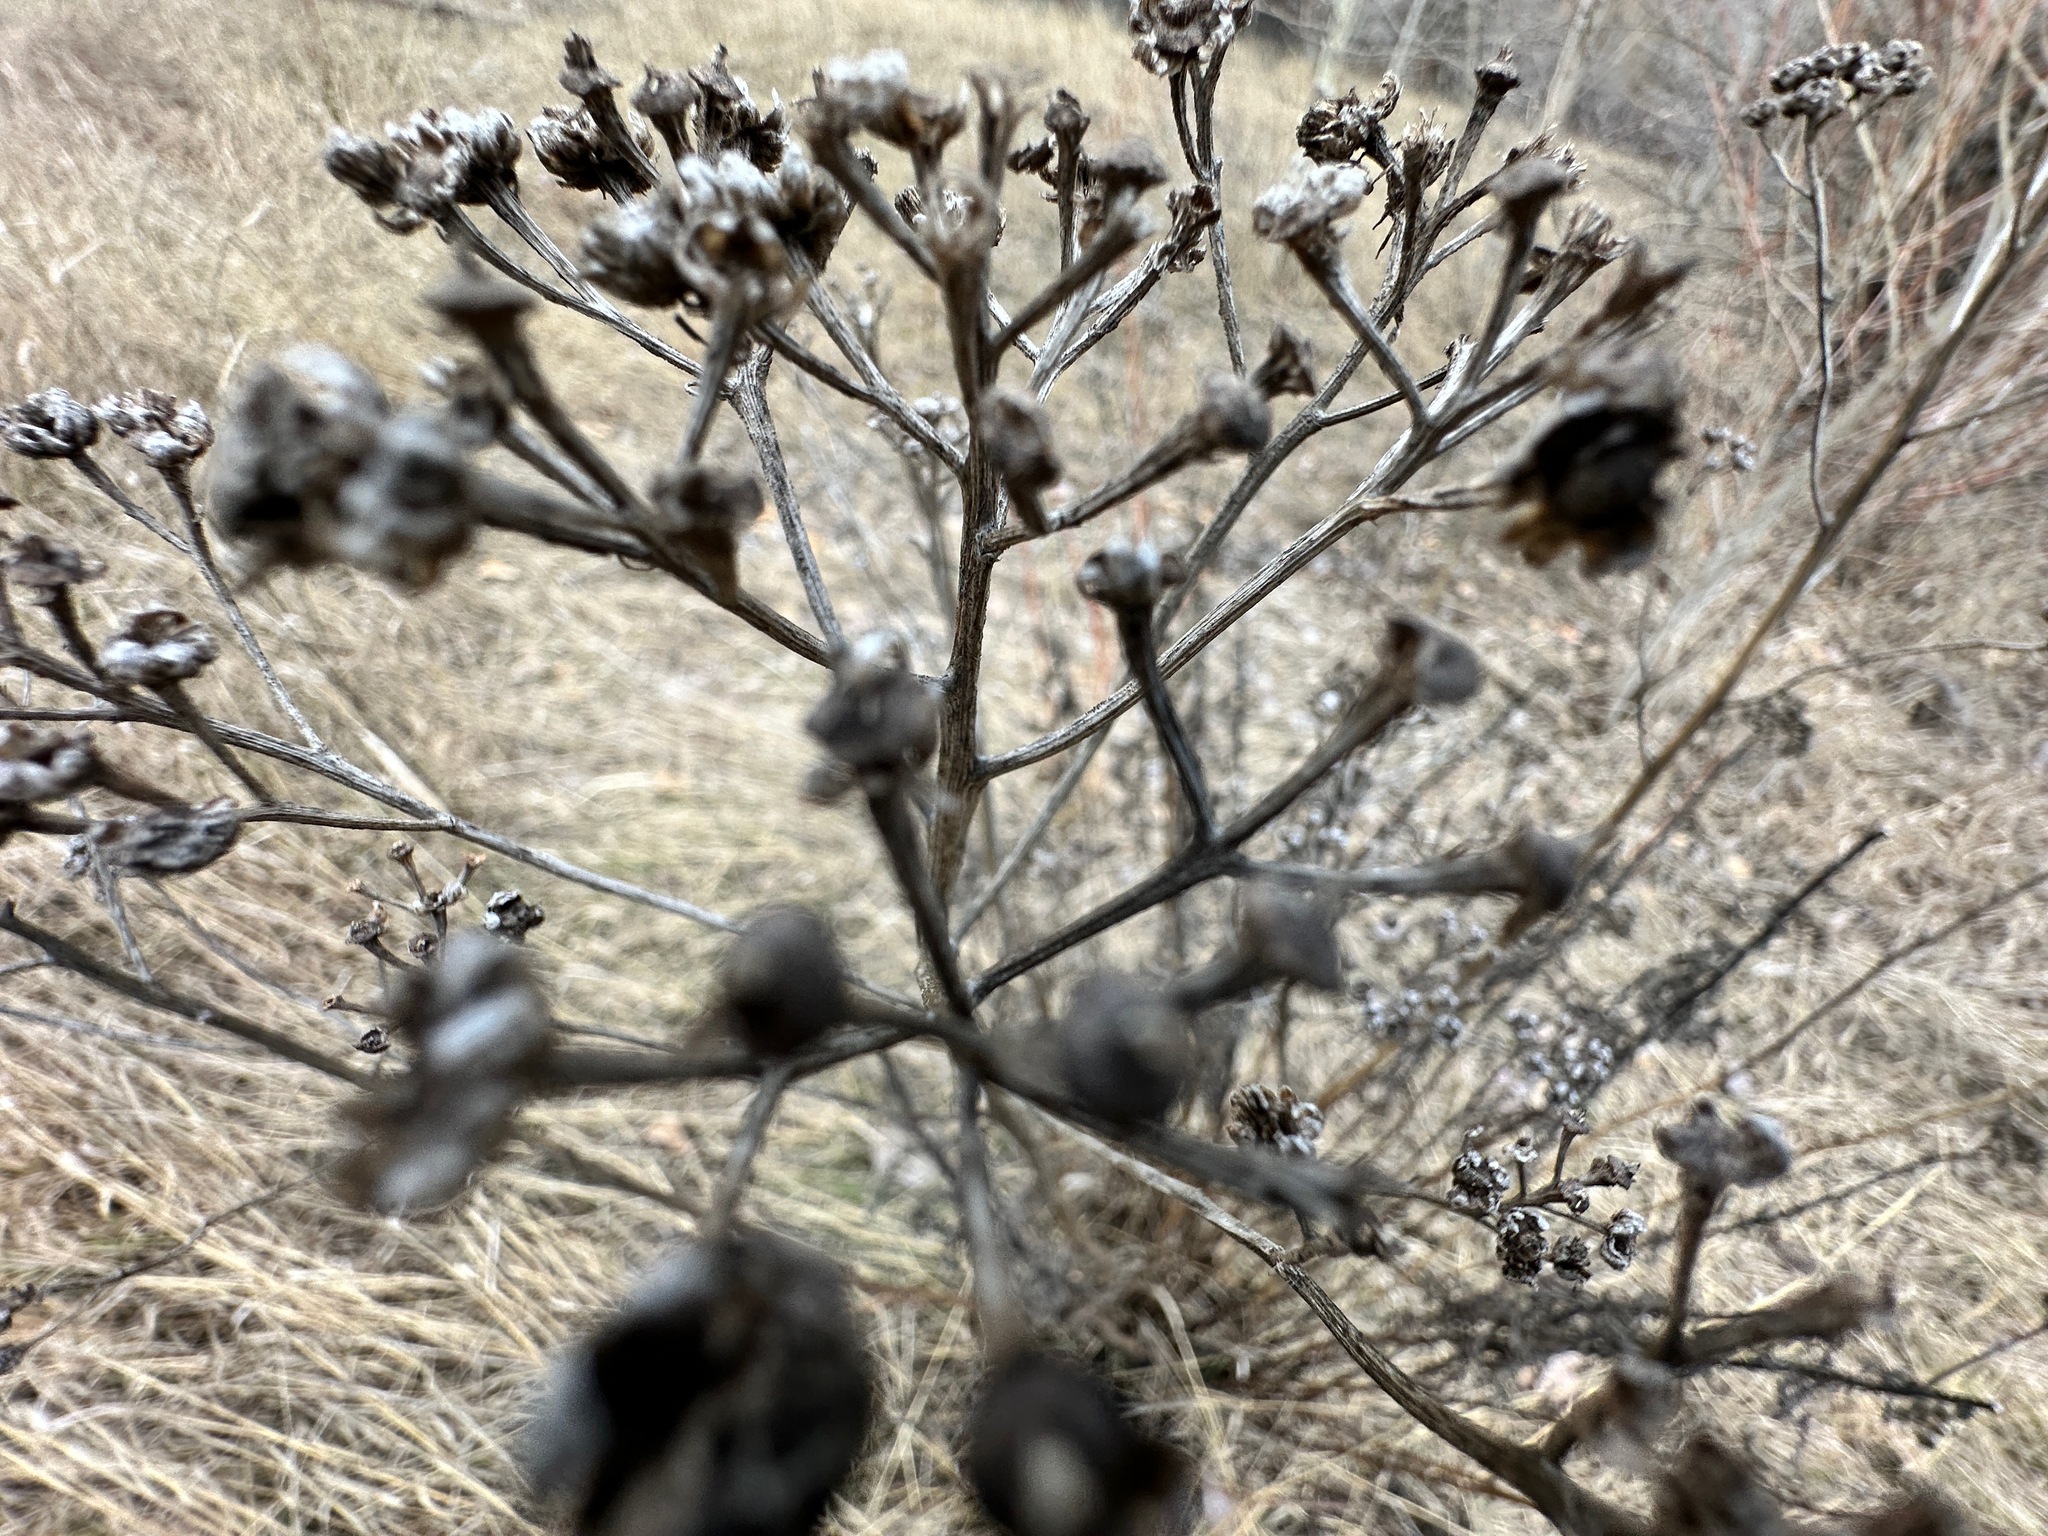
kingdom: Plantae
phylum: Tracheophyta
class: Magnoliopsida
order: Asterales
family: Asteraceae
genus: Tanacetum
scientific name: Tanacetum vulgare
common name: Common tansy
